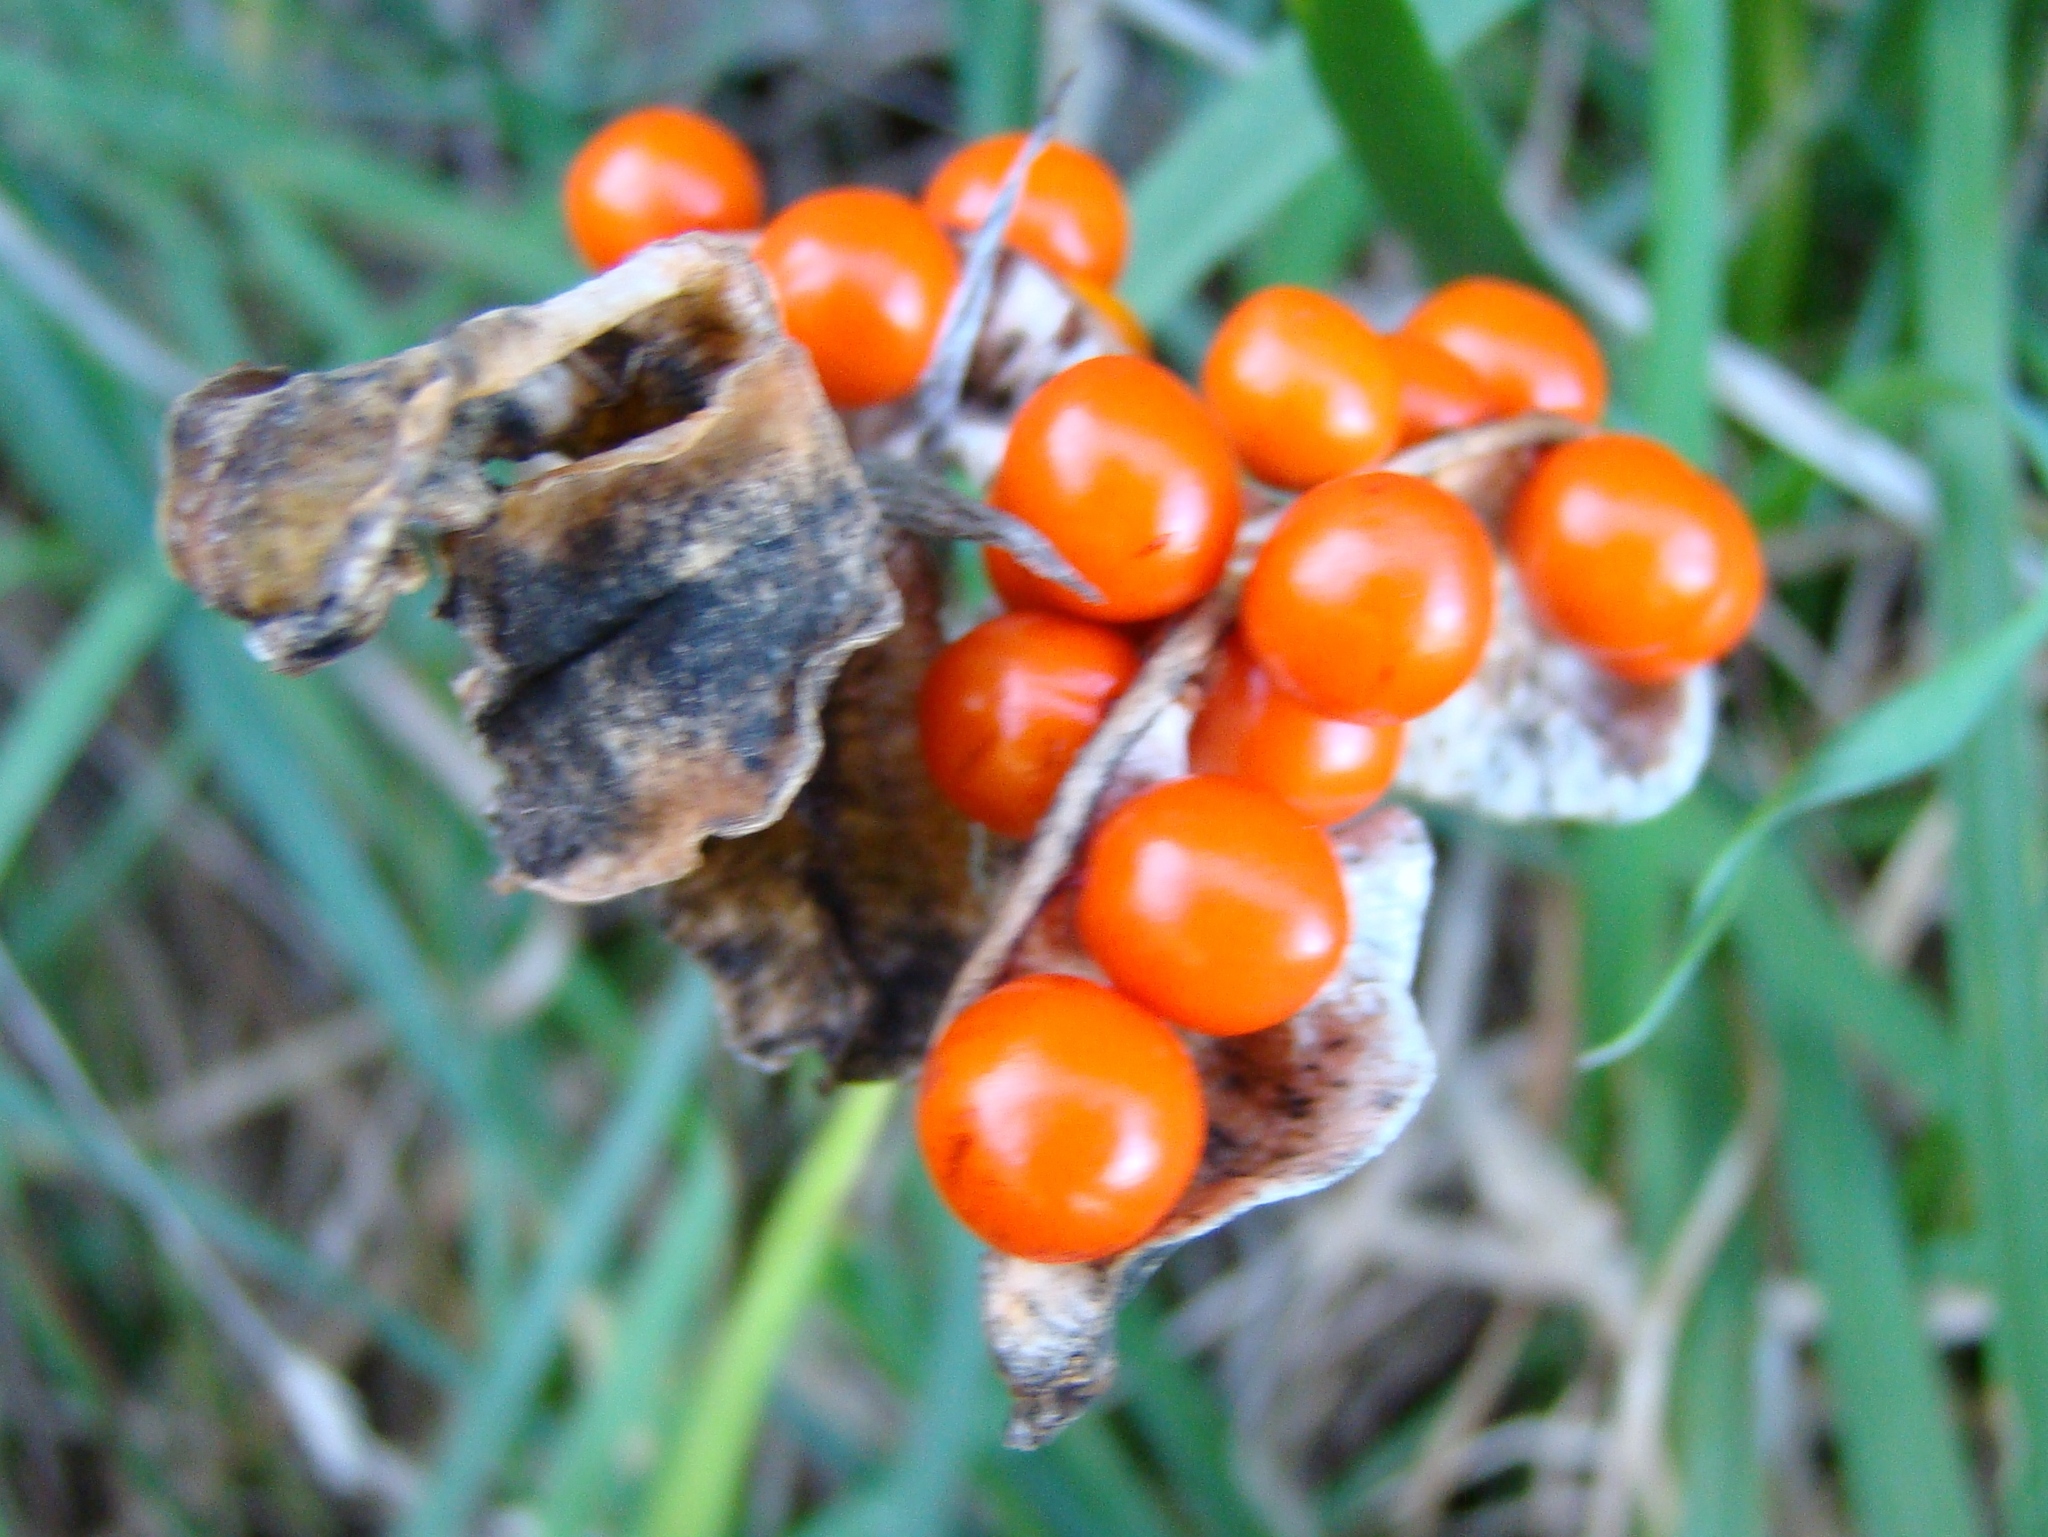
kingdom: Plantae
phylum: Tracheophyta
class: Liliopsida
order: Asparagales
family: Iridaceae
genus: Iris
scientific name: Iris foetidissima
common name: Stinking iris
